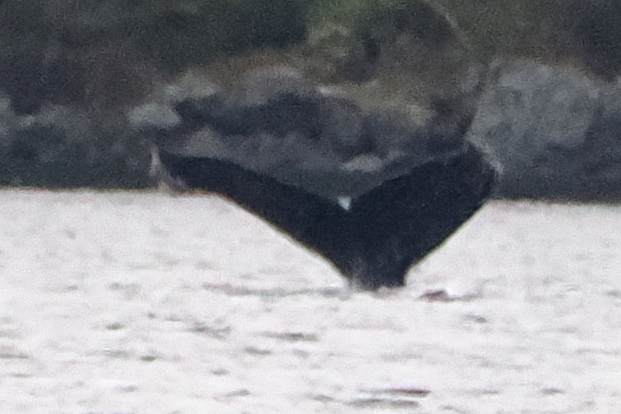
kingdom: Animalia
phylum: Chordata
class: Mammalia
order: Cetacea
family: Balaenopteridae
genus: Megaptera
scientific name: Megaptera novaeangliae
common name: Humpback whale
